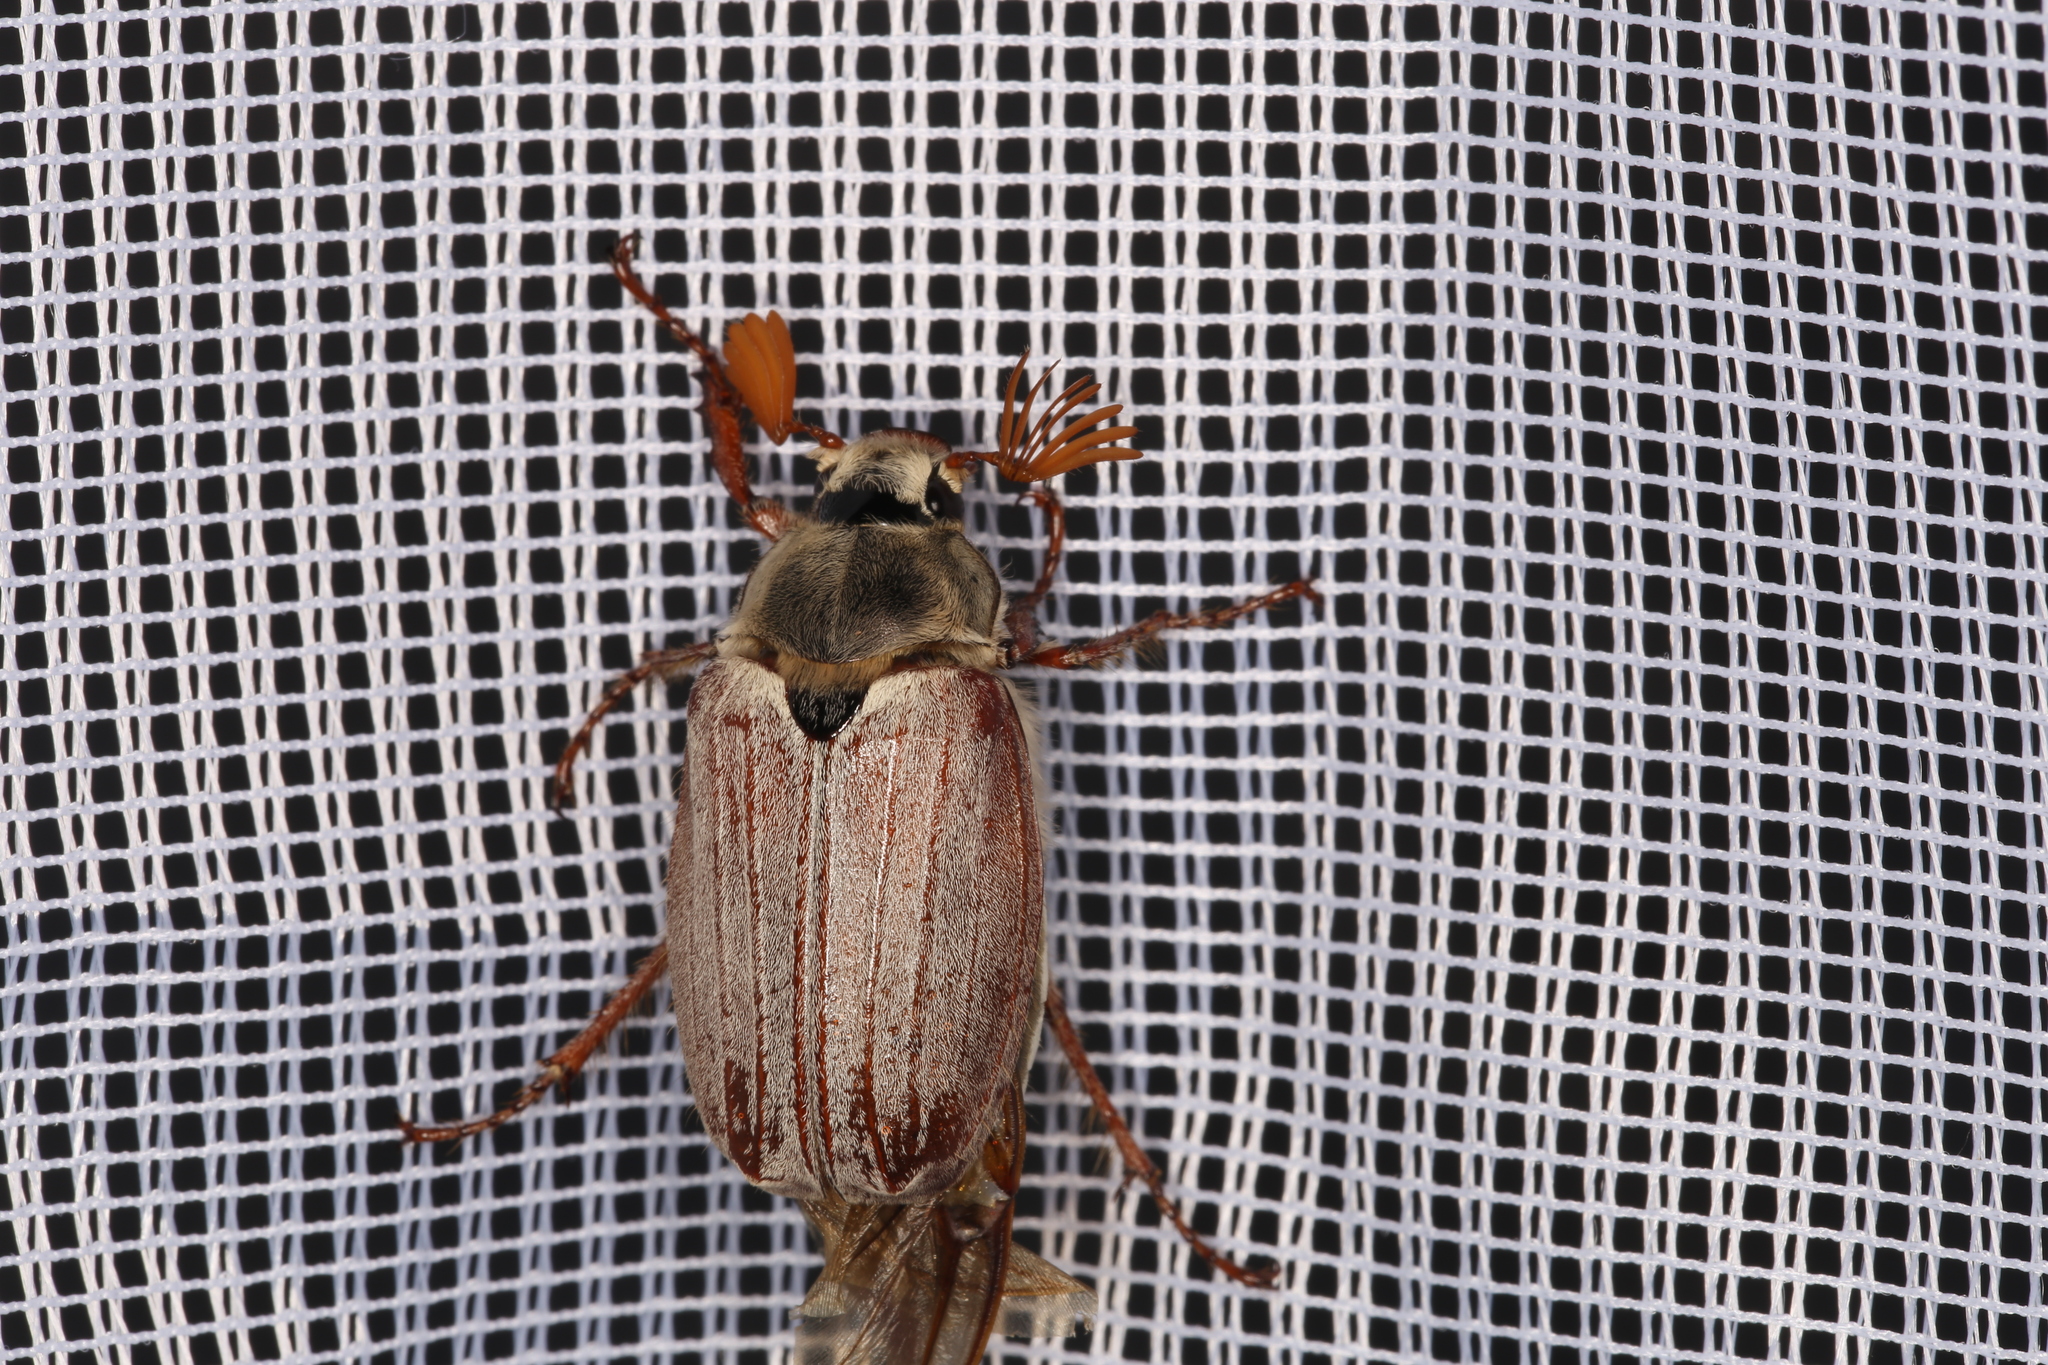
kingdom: Animalia
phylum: Arthropoda
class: Insecta
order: Coleoptera
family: Scarabaeidae
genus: Melolontha
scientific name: Melolontha melolontha
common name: Cockchafer maybeetle
